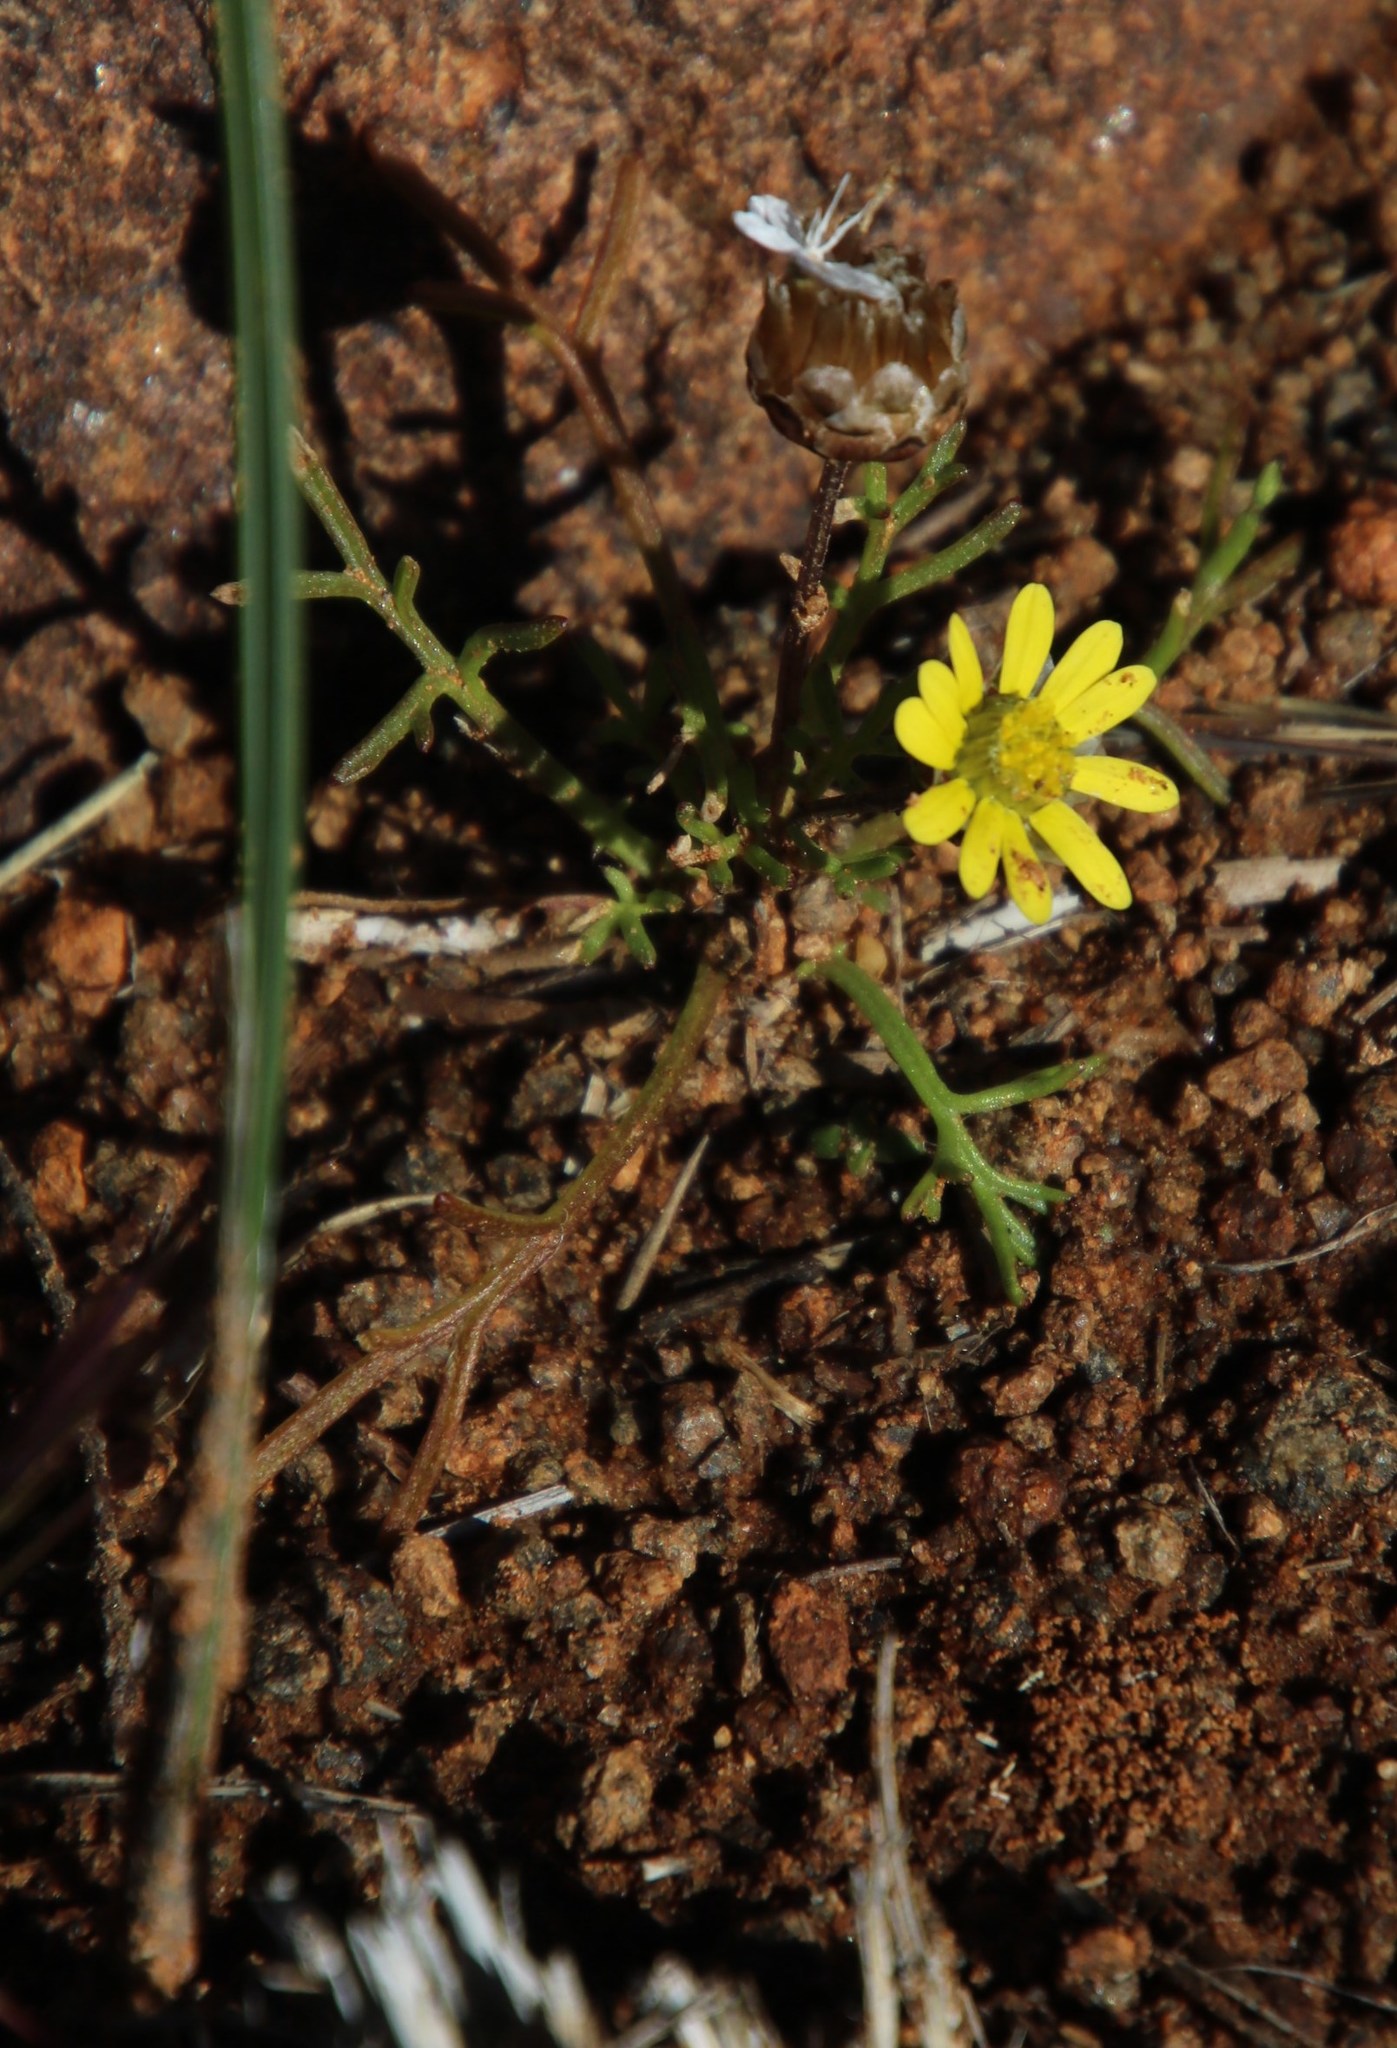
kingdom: Plantae
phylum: Tracheophyta
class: Magnoliopsida
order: Asterales
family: Asteraceae
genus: Ursinia
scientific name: Ursinia nana
